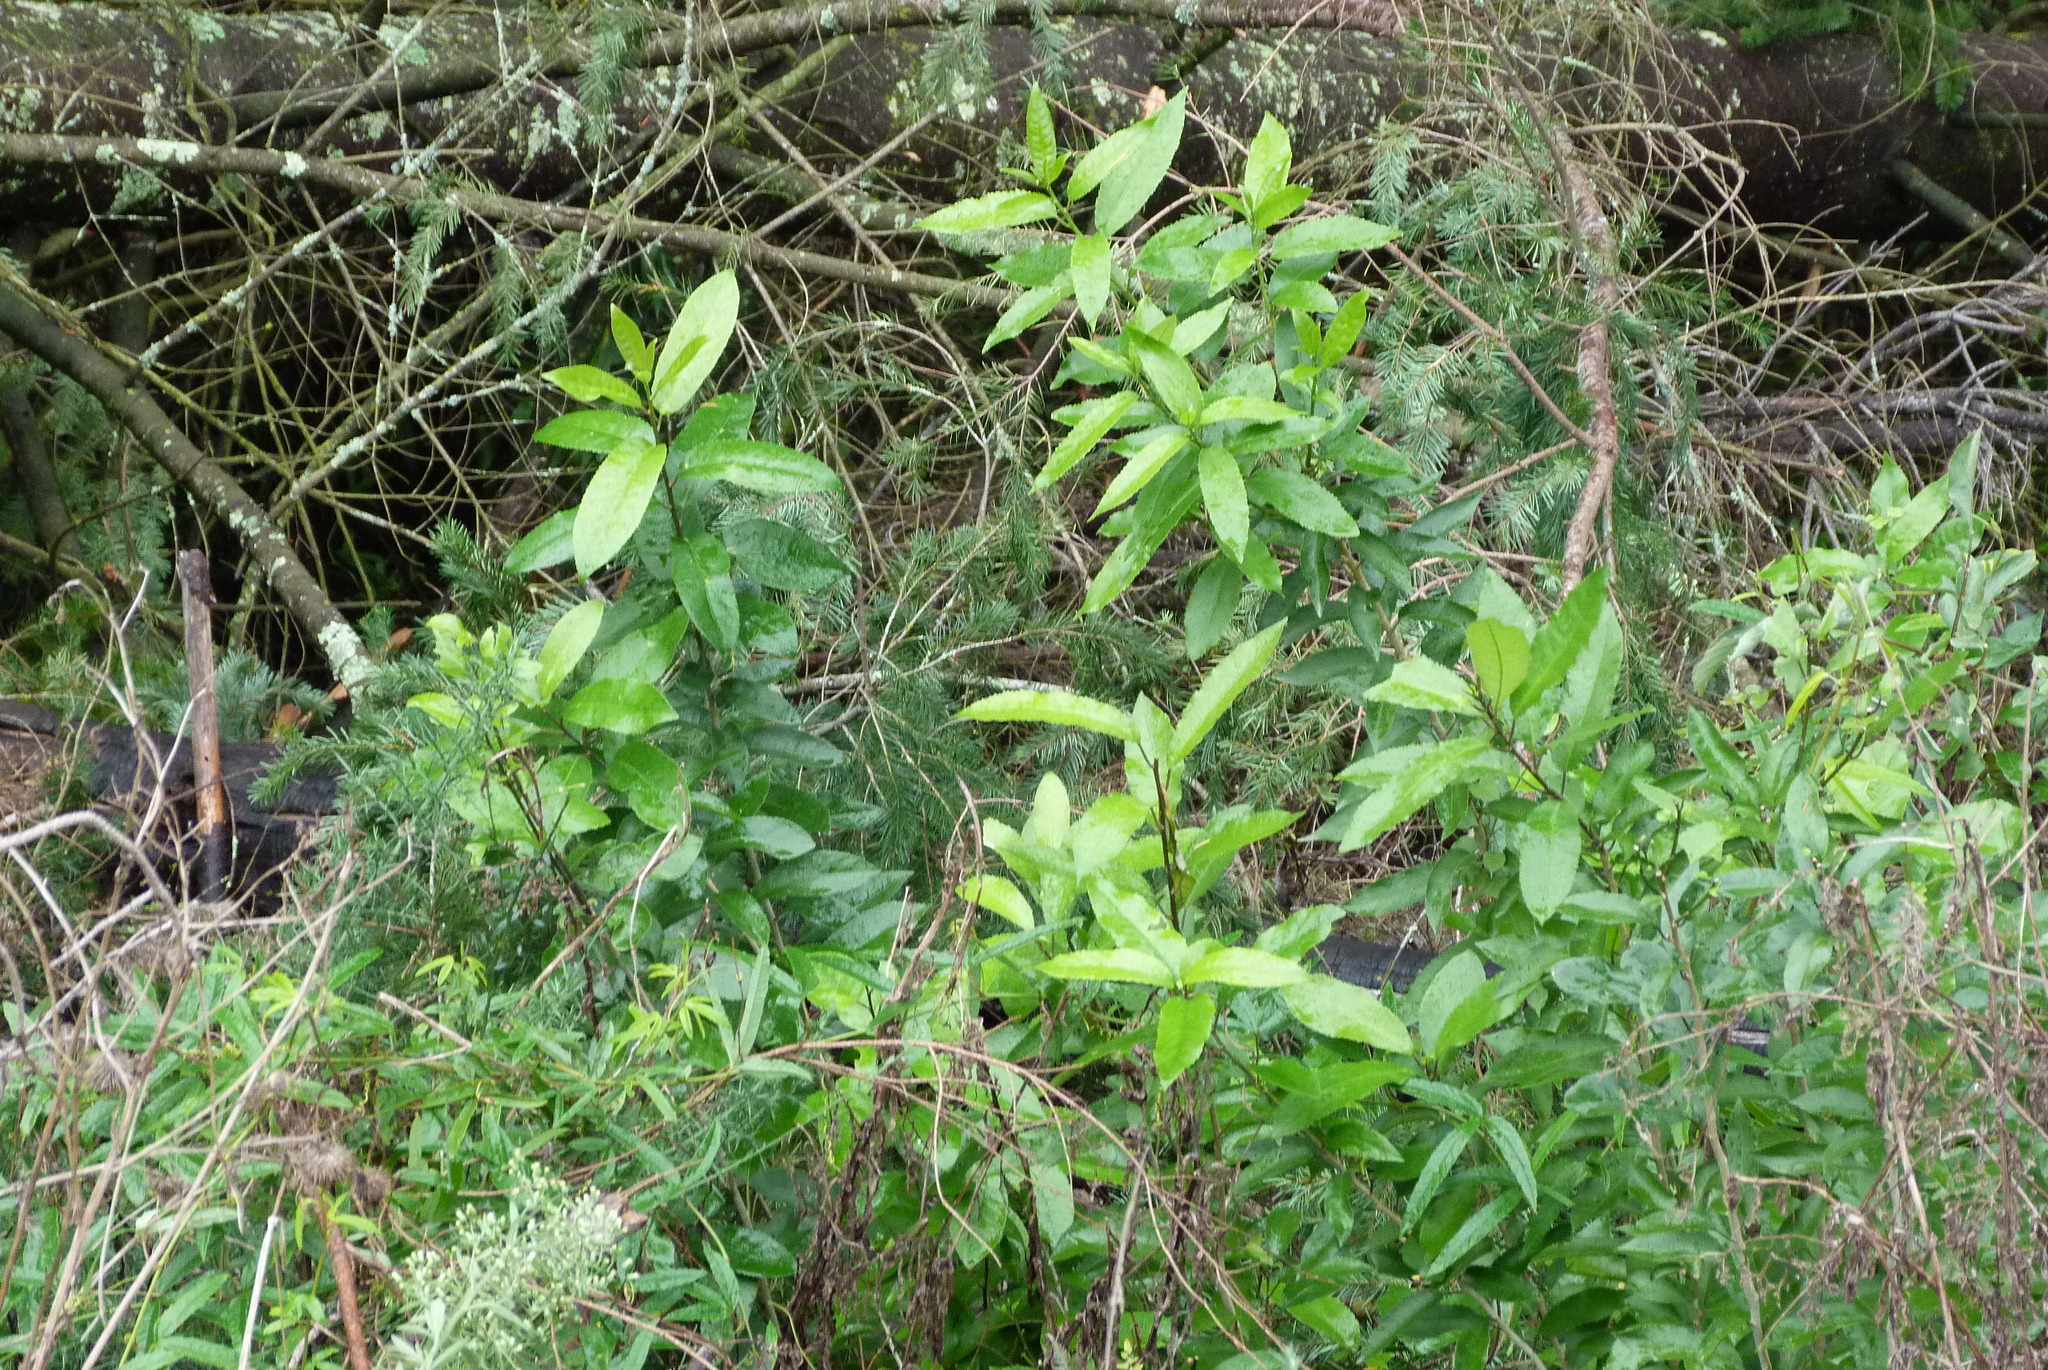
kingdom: Plantae
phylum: Tracheophyta
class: Magnoliopsida
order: Malpighiales
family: Violaceae
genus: Melicytus
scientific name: Melicytus ramiflorus
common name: Mahoe
